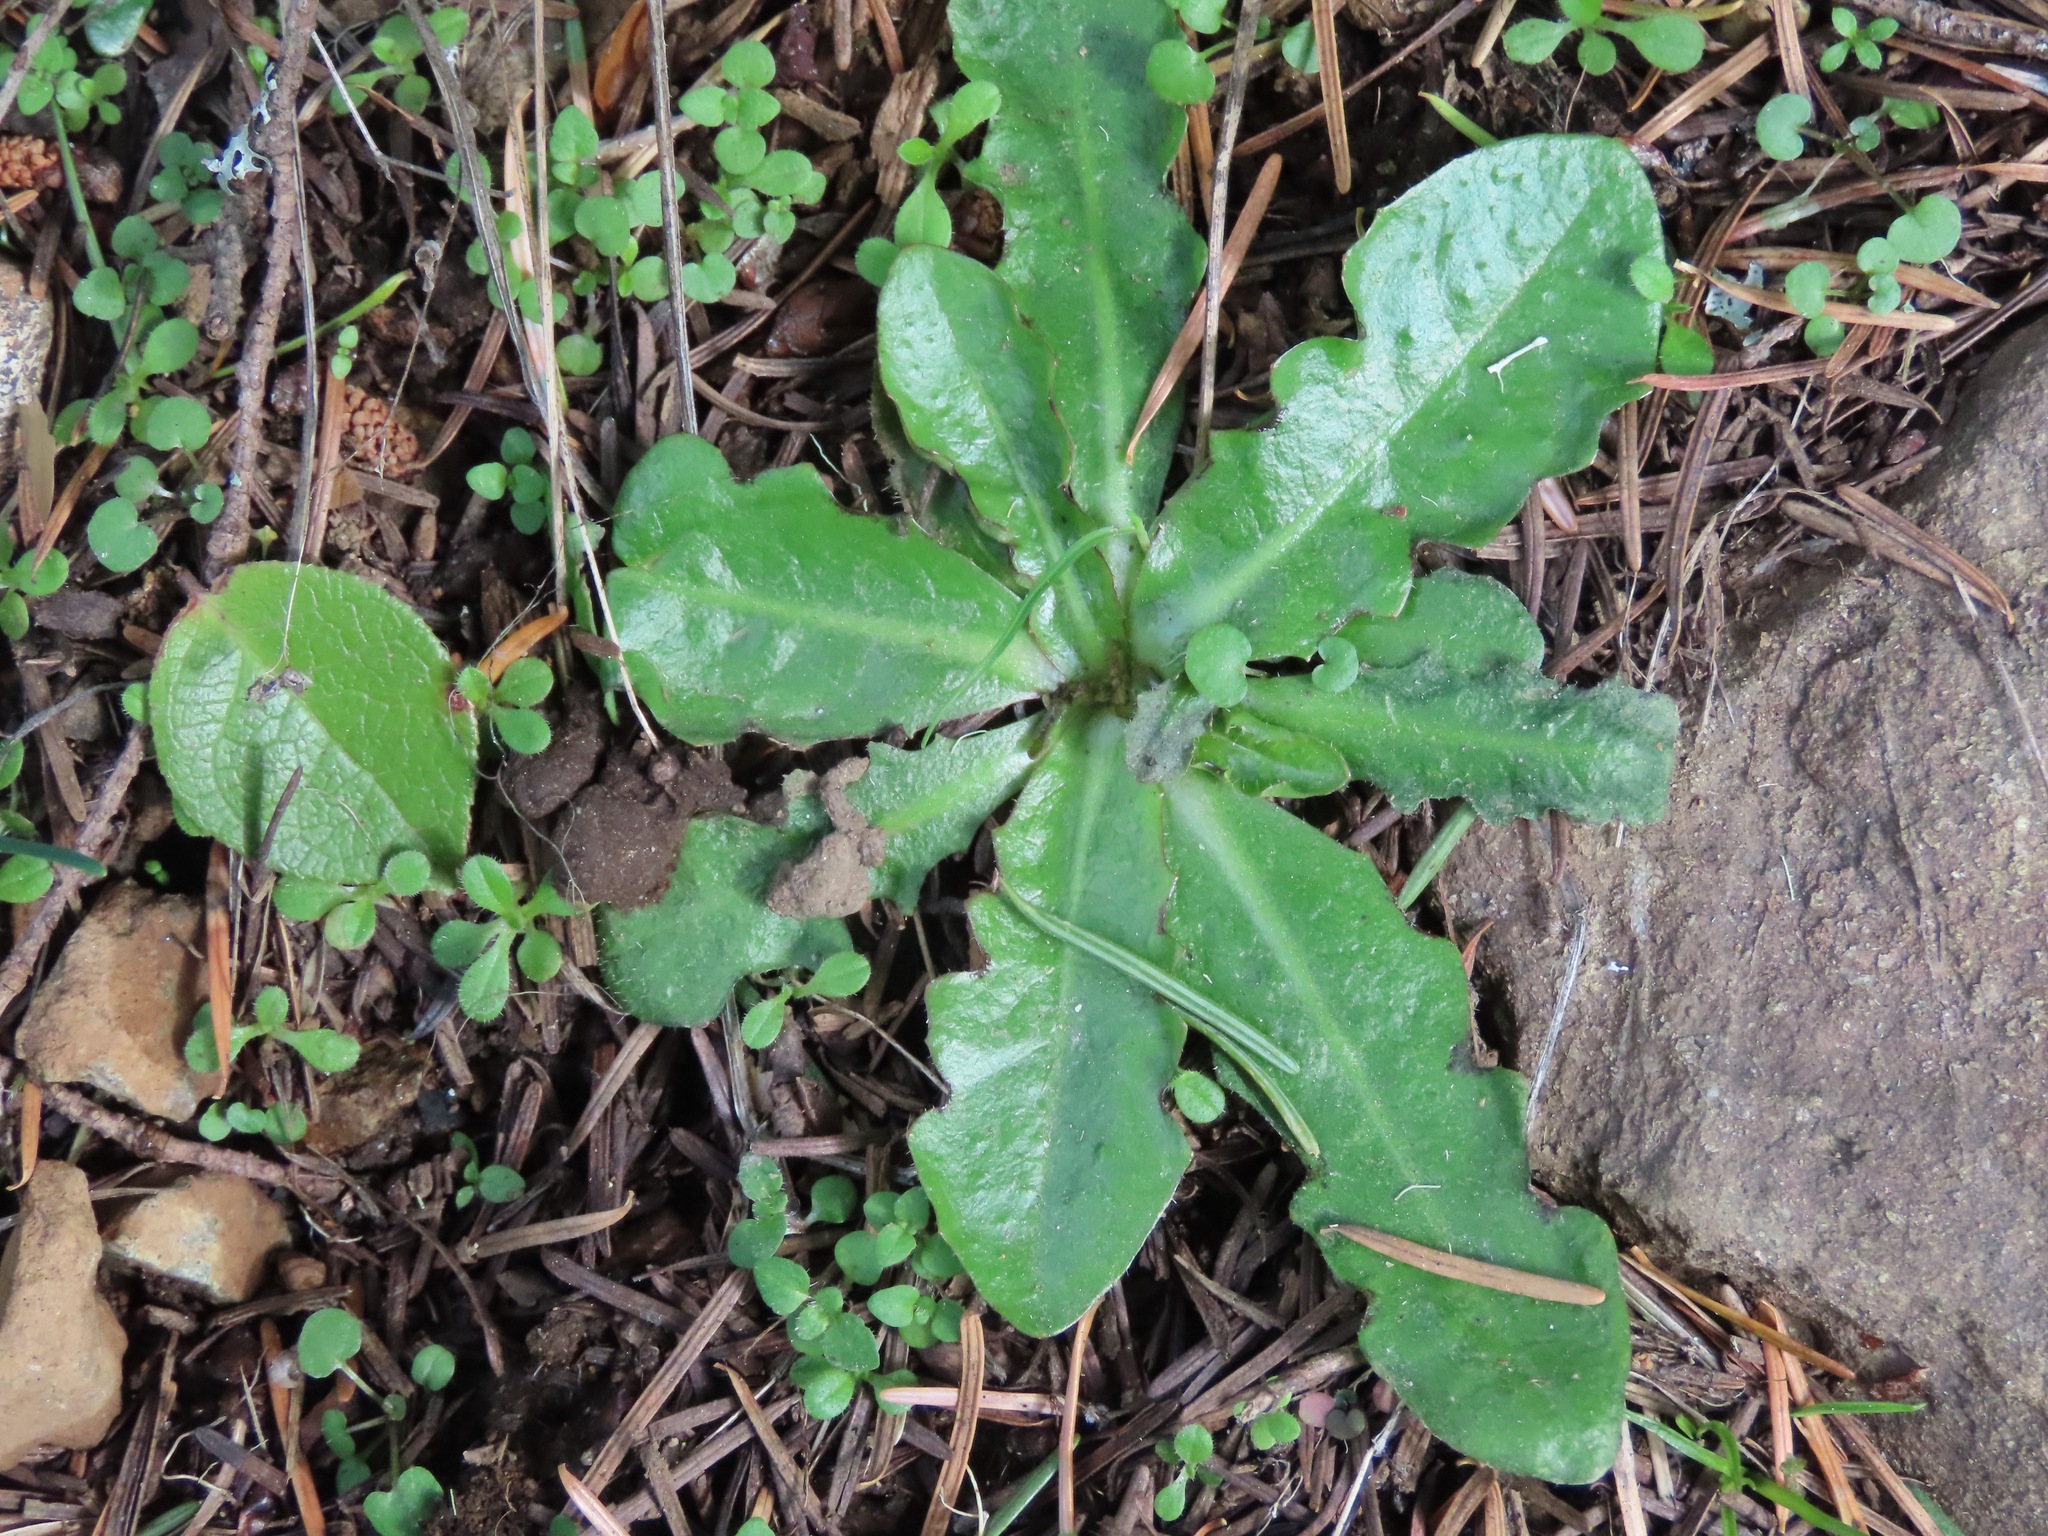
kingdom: Plantae
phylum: Tracheophyta
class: Magnoliopsida
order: Asterales
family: Asteraceae
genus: Hypochaeris
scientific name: Hypochaeris radicata
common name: Flatweed
